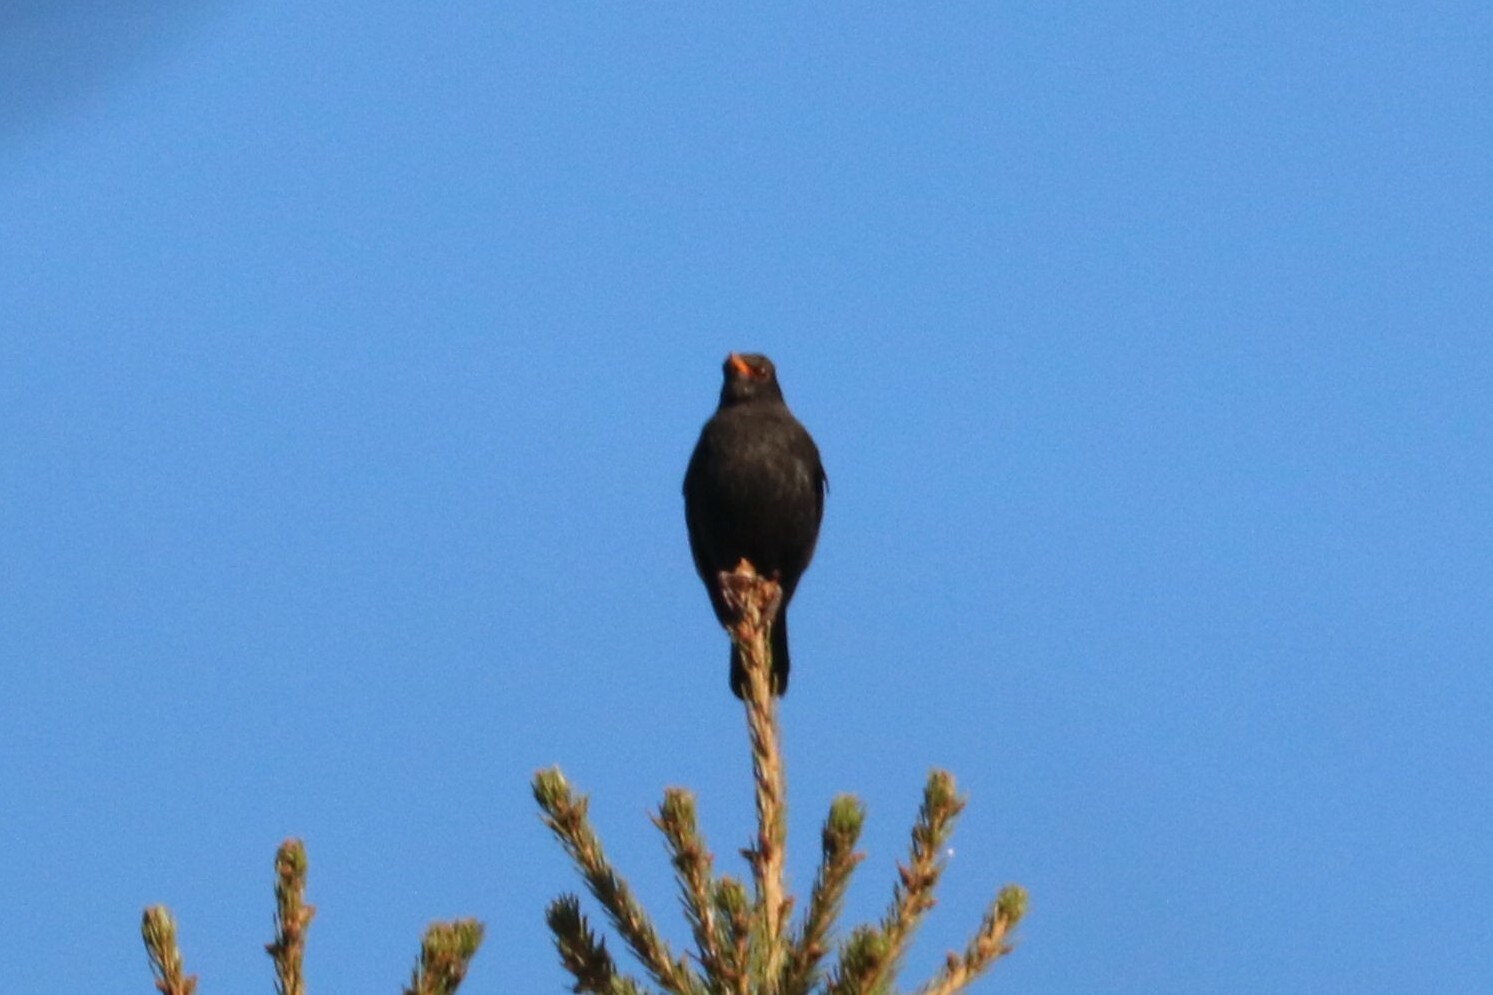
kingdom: Animalia
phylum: Chordata
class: Aves
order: Passeriformes
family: Turdidae
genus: Turdus
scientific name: Turdus merula
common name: Common blackbird
